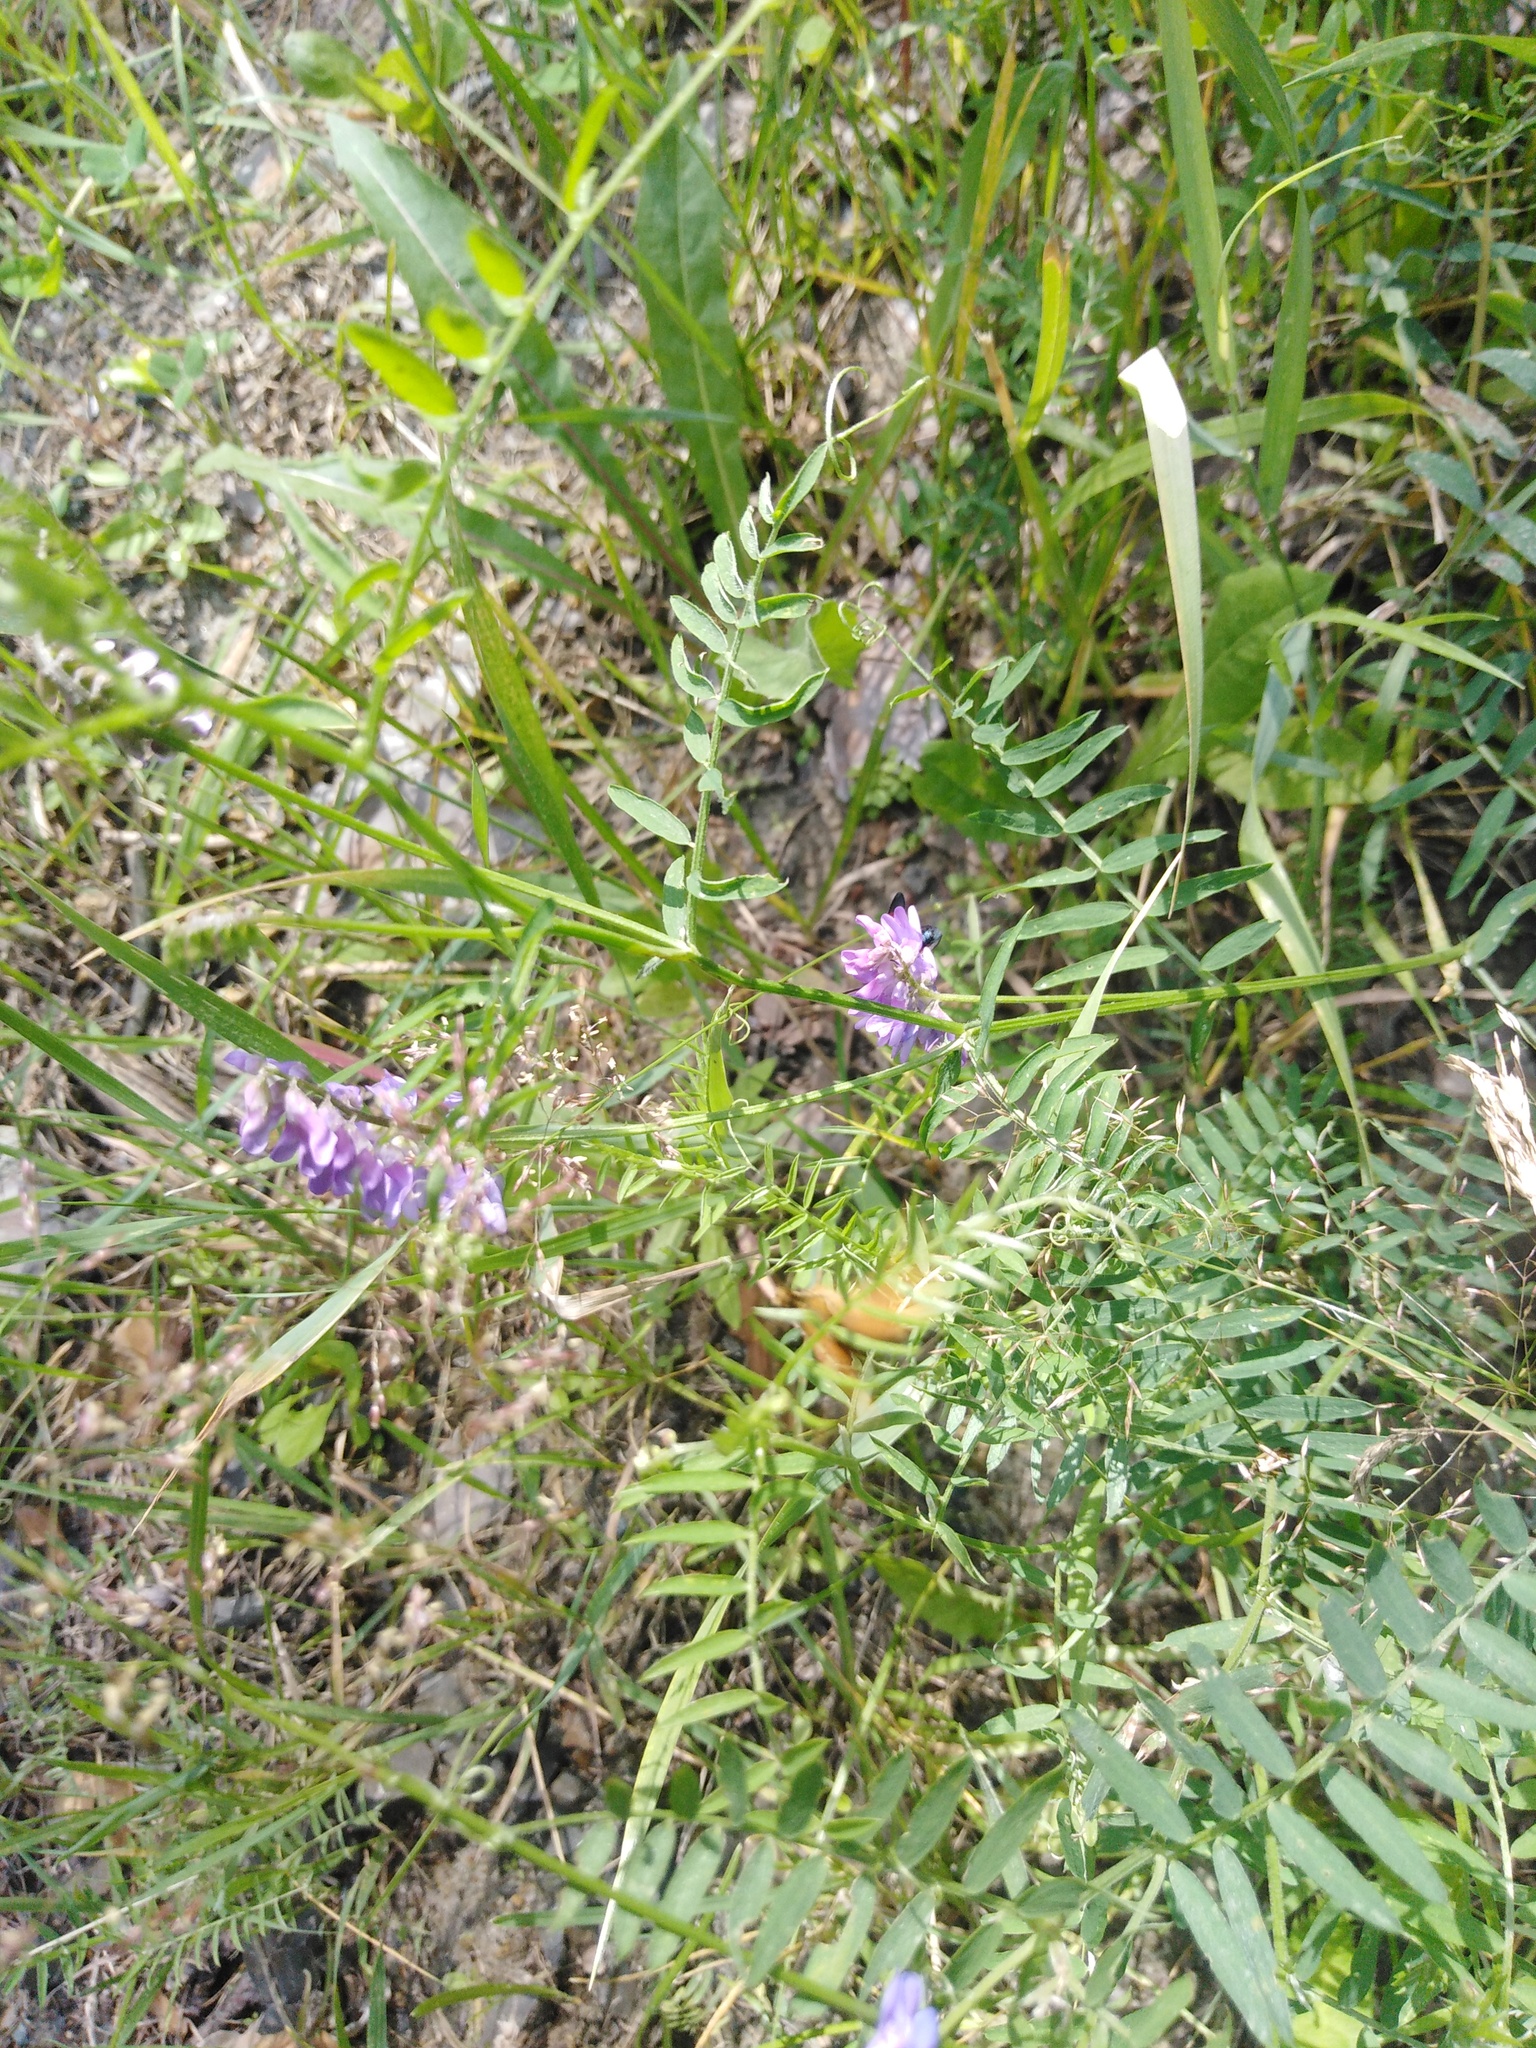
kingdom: Plantae
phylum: Tracheophyta
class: Magnoliopsida
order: Fabales
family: Fabaceae
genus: Vicia
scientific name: Vicia cracca
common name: Bird vetch
